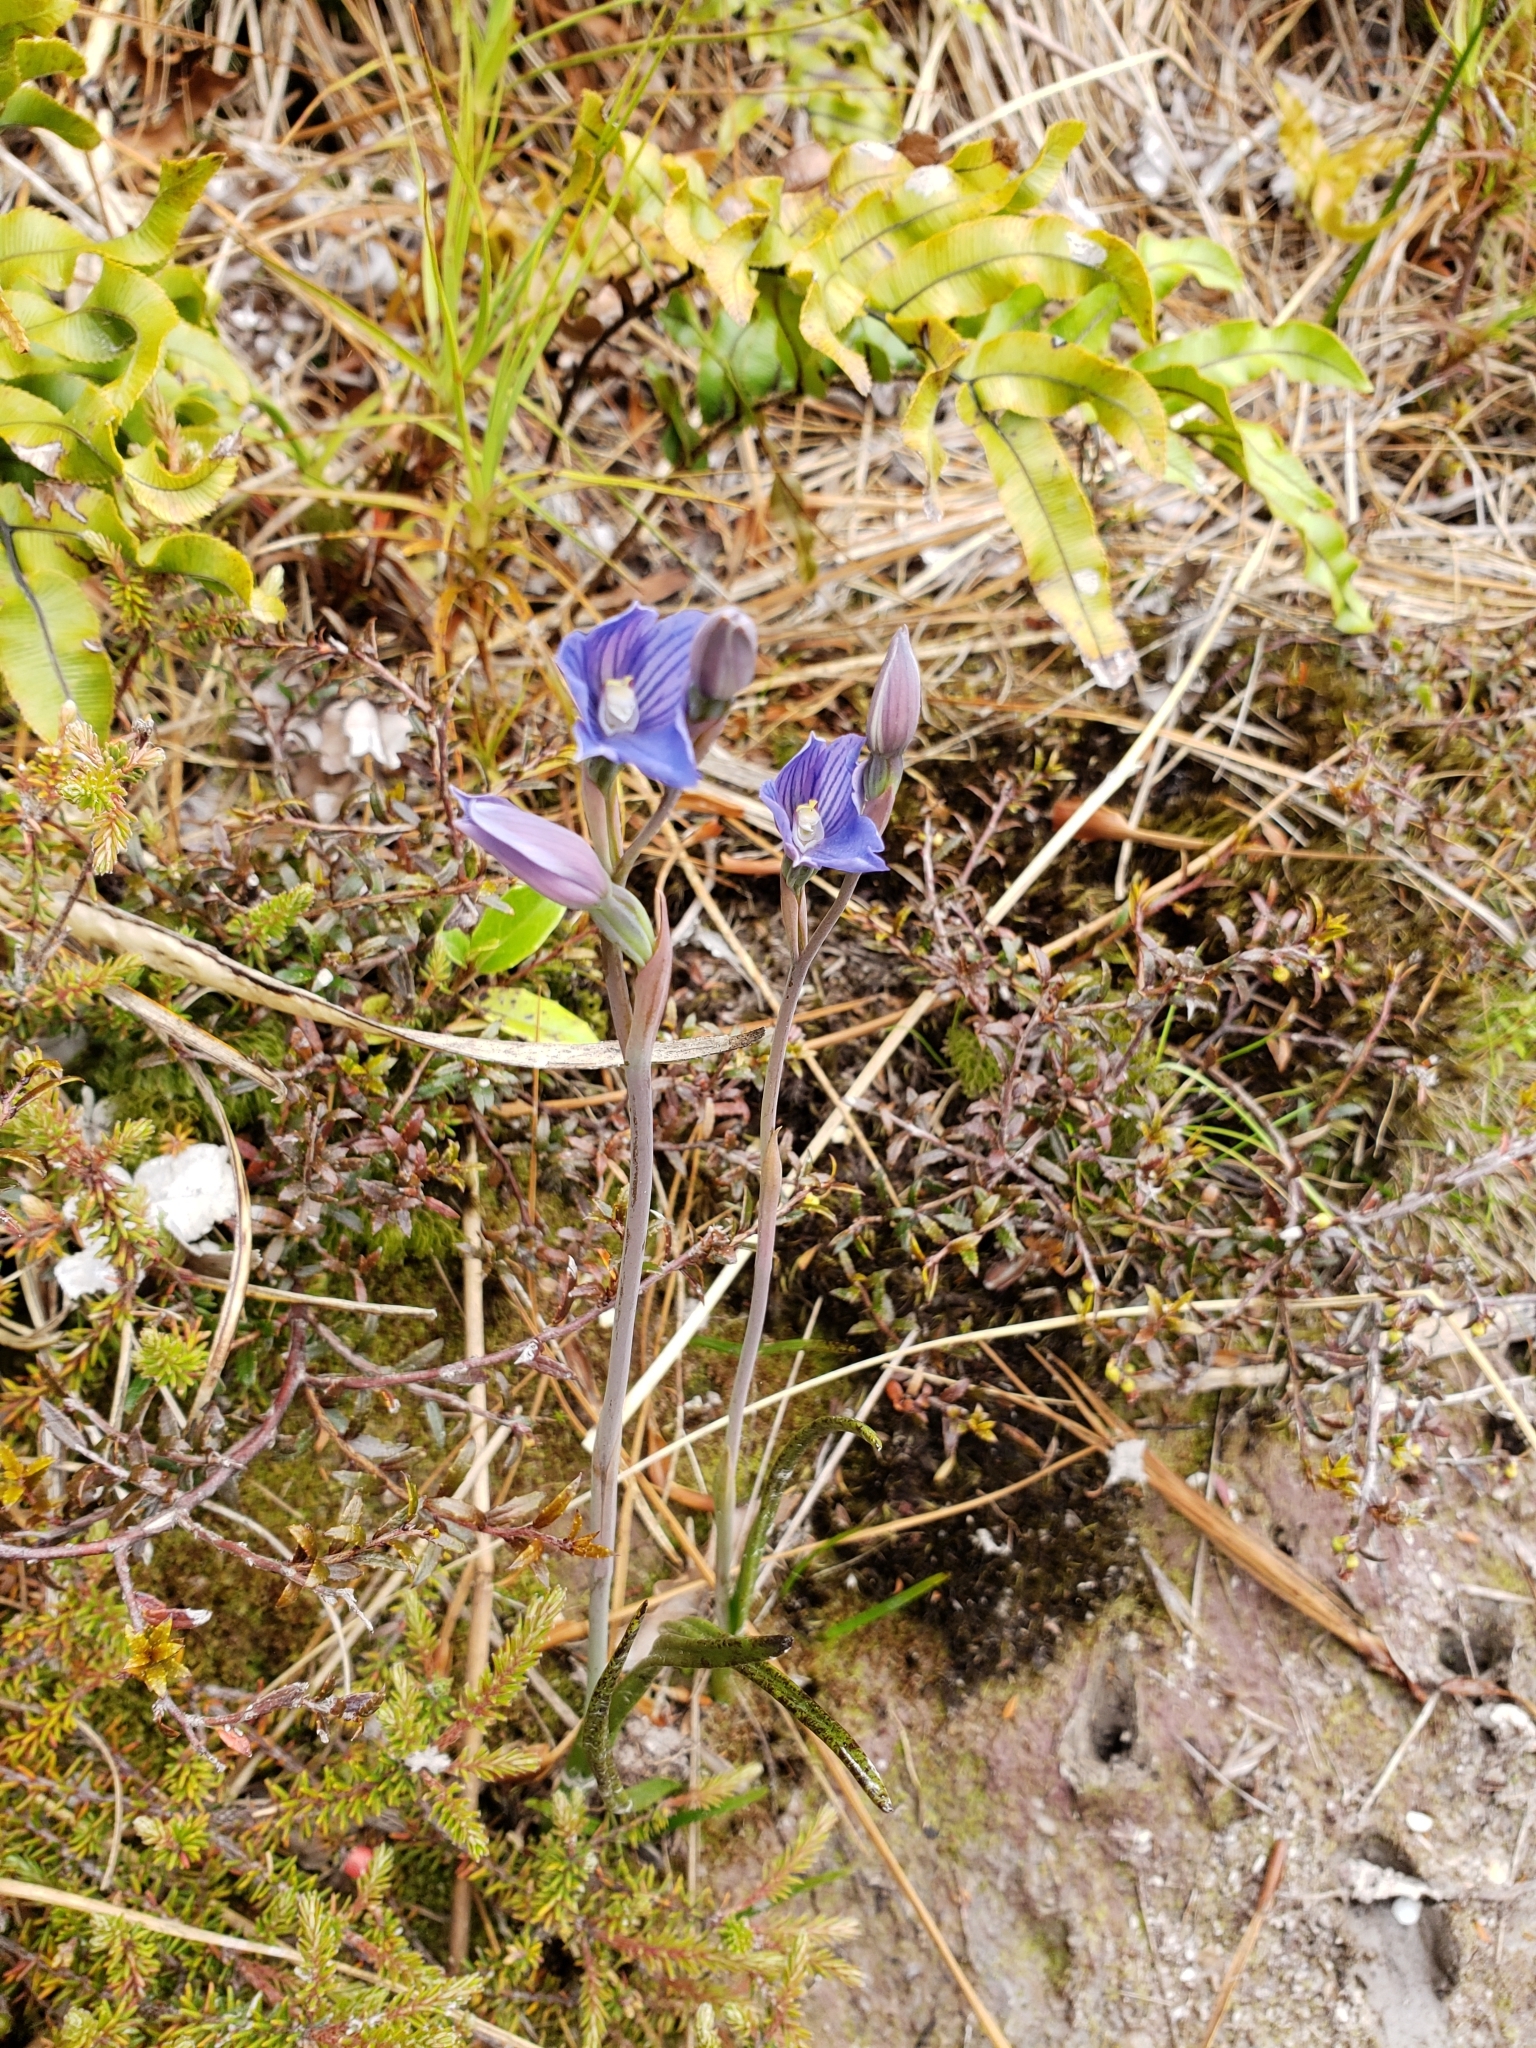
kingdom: Plantae
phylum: Tracheophyta
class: Liliopsida
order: Asparagales
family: Orchidaceae
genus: Thelymitra
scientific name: Thelymitra cyanea
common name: Blue sun-orchid
